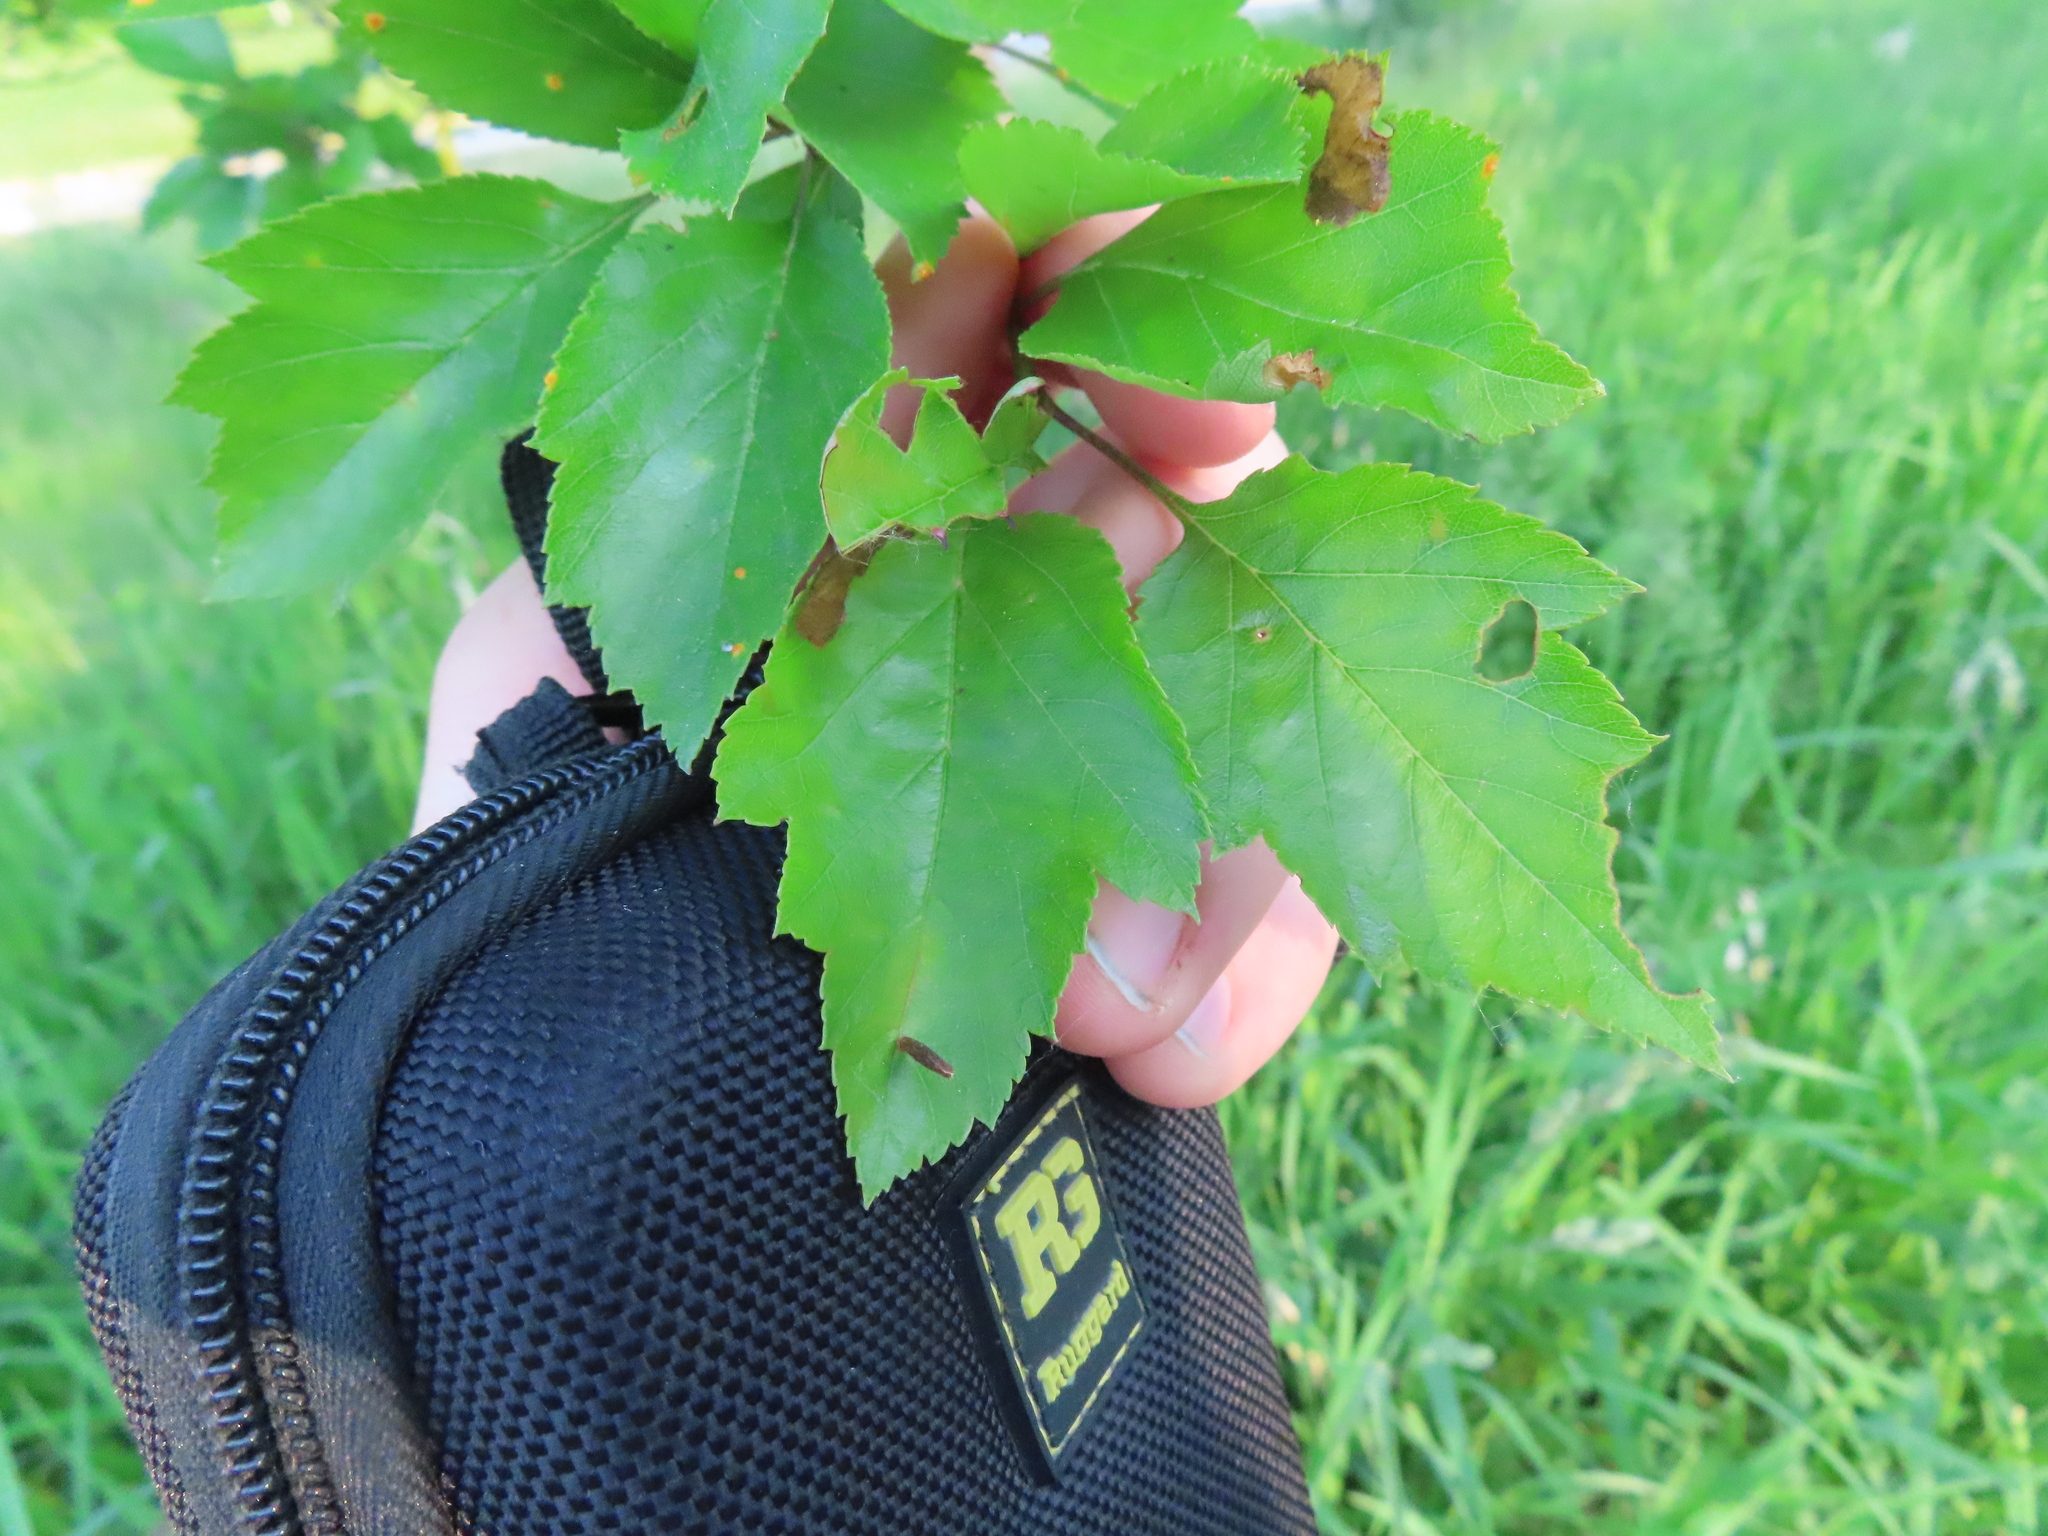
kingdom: Animalia
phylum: Arthropoda
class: Insecta
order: Hymenoptera
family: Tenthredinidae
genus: Profenusa
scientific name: Profenusa
